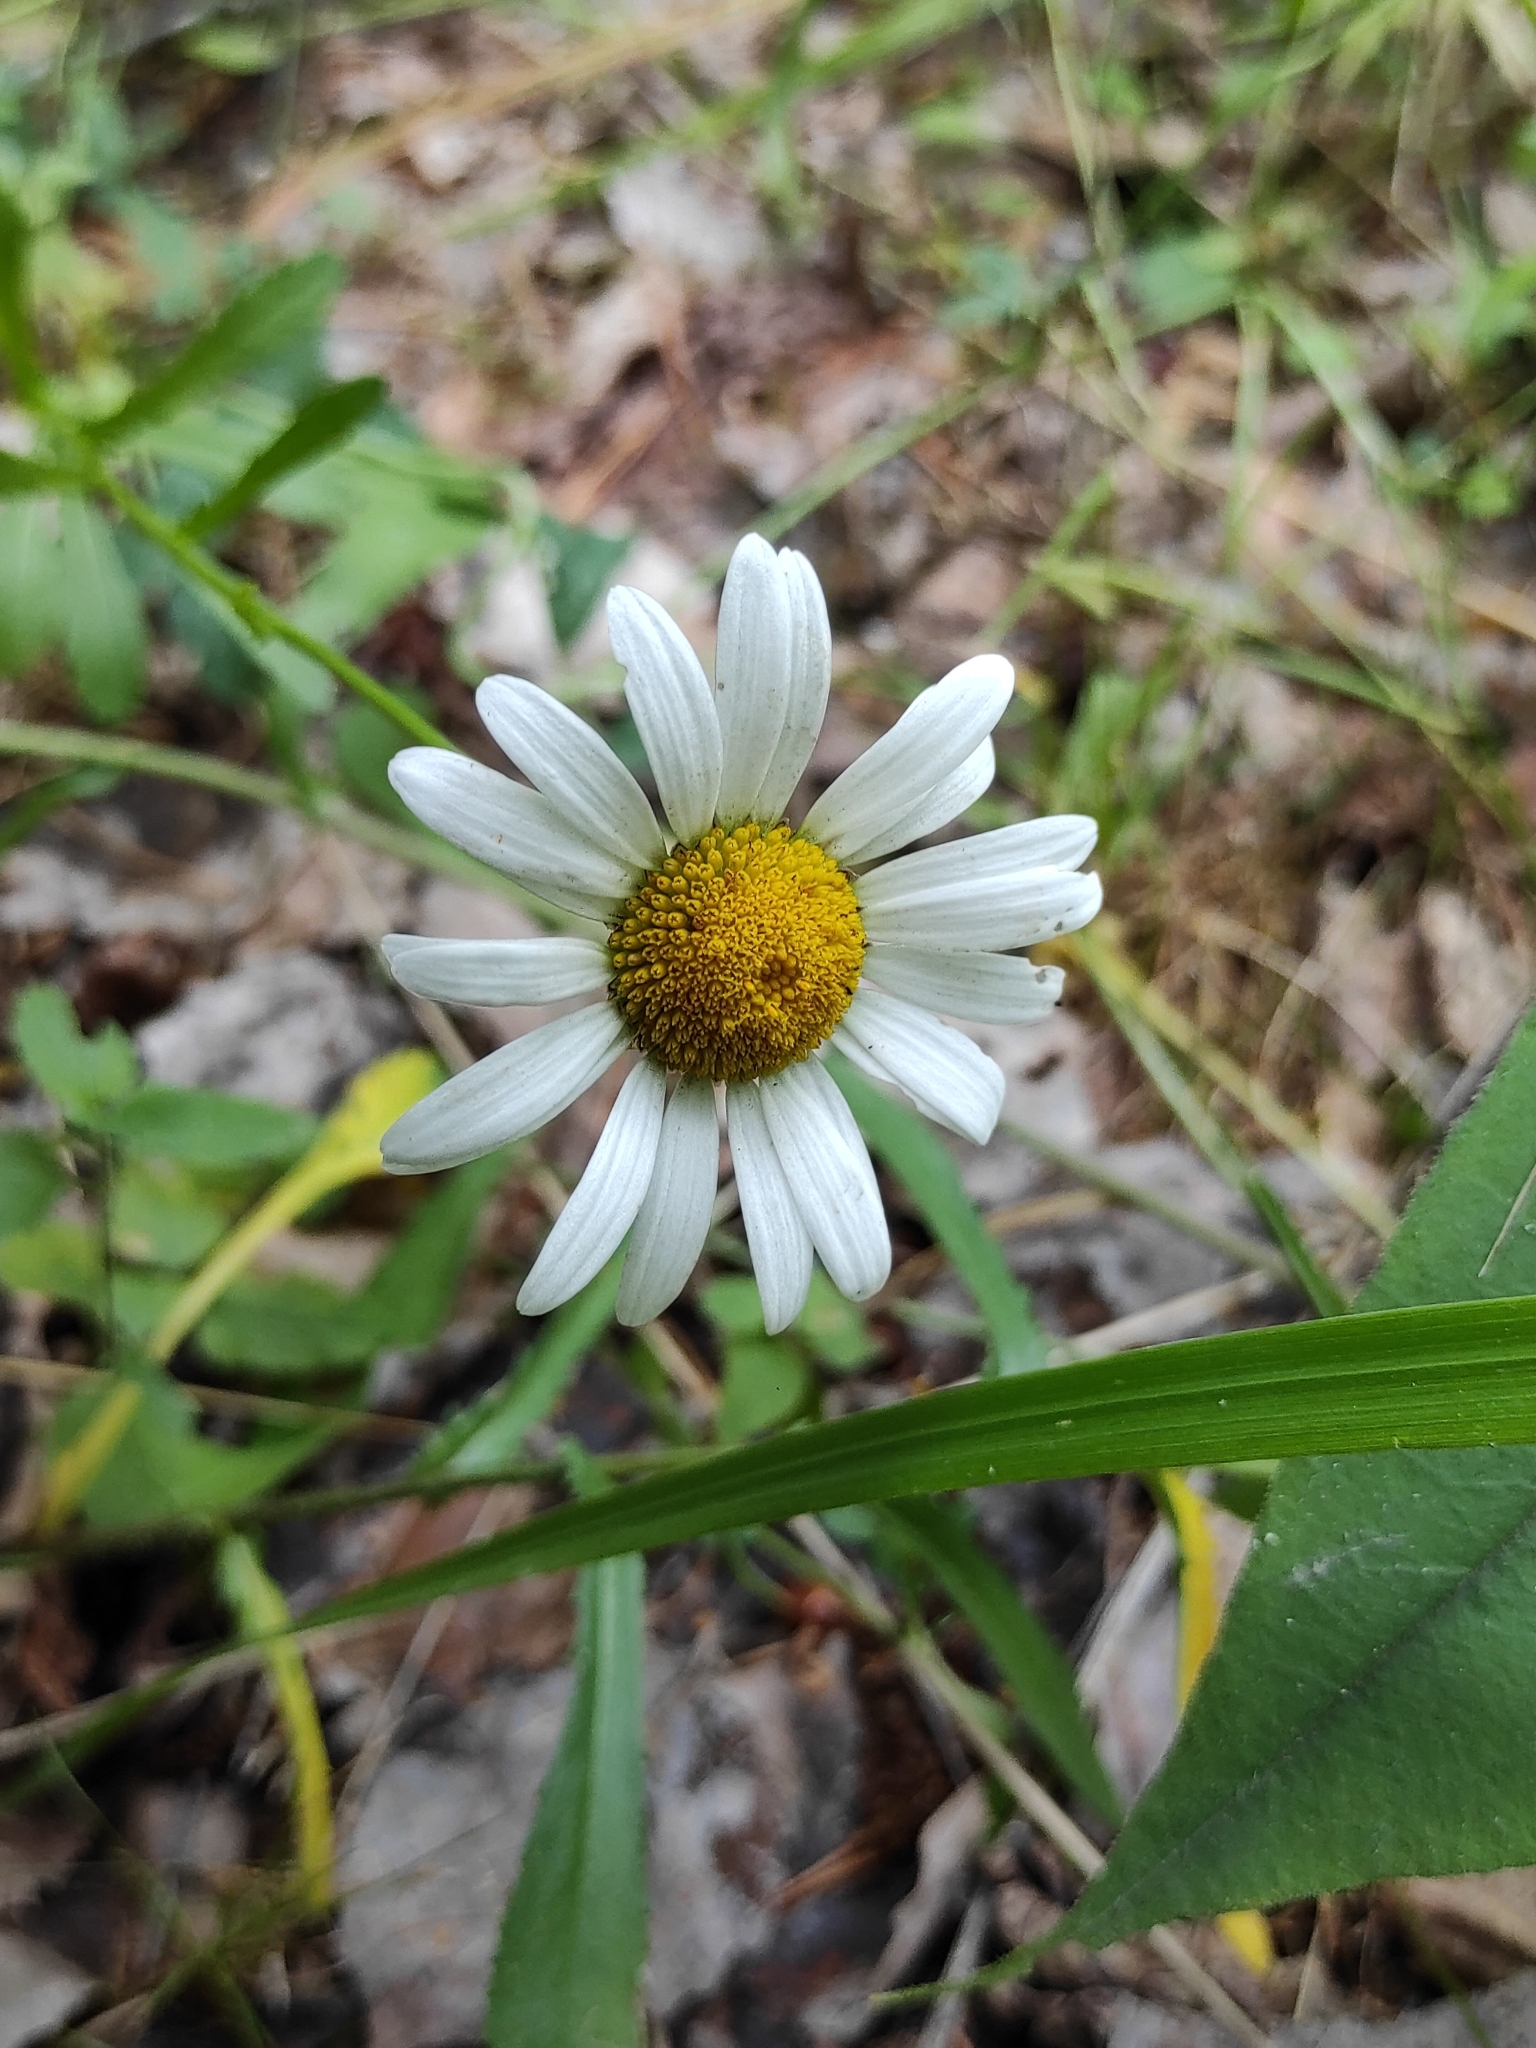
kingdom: Plantae
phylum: Tracheophyta
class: Magnoliopsida
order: Asterales
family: Asteraceae
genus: Leucanthemum
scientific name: Leucanthemum vulgare
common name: Oxeye daisy
